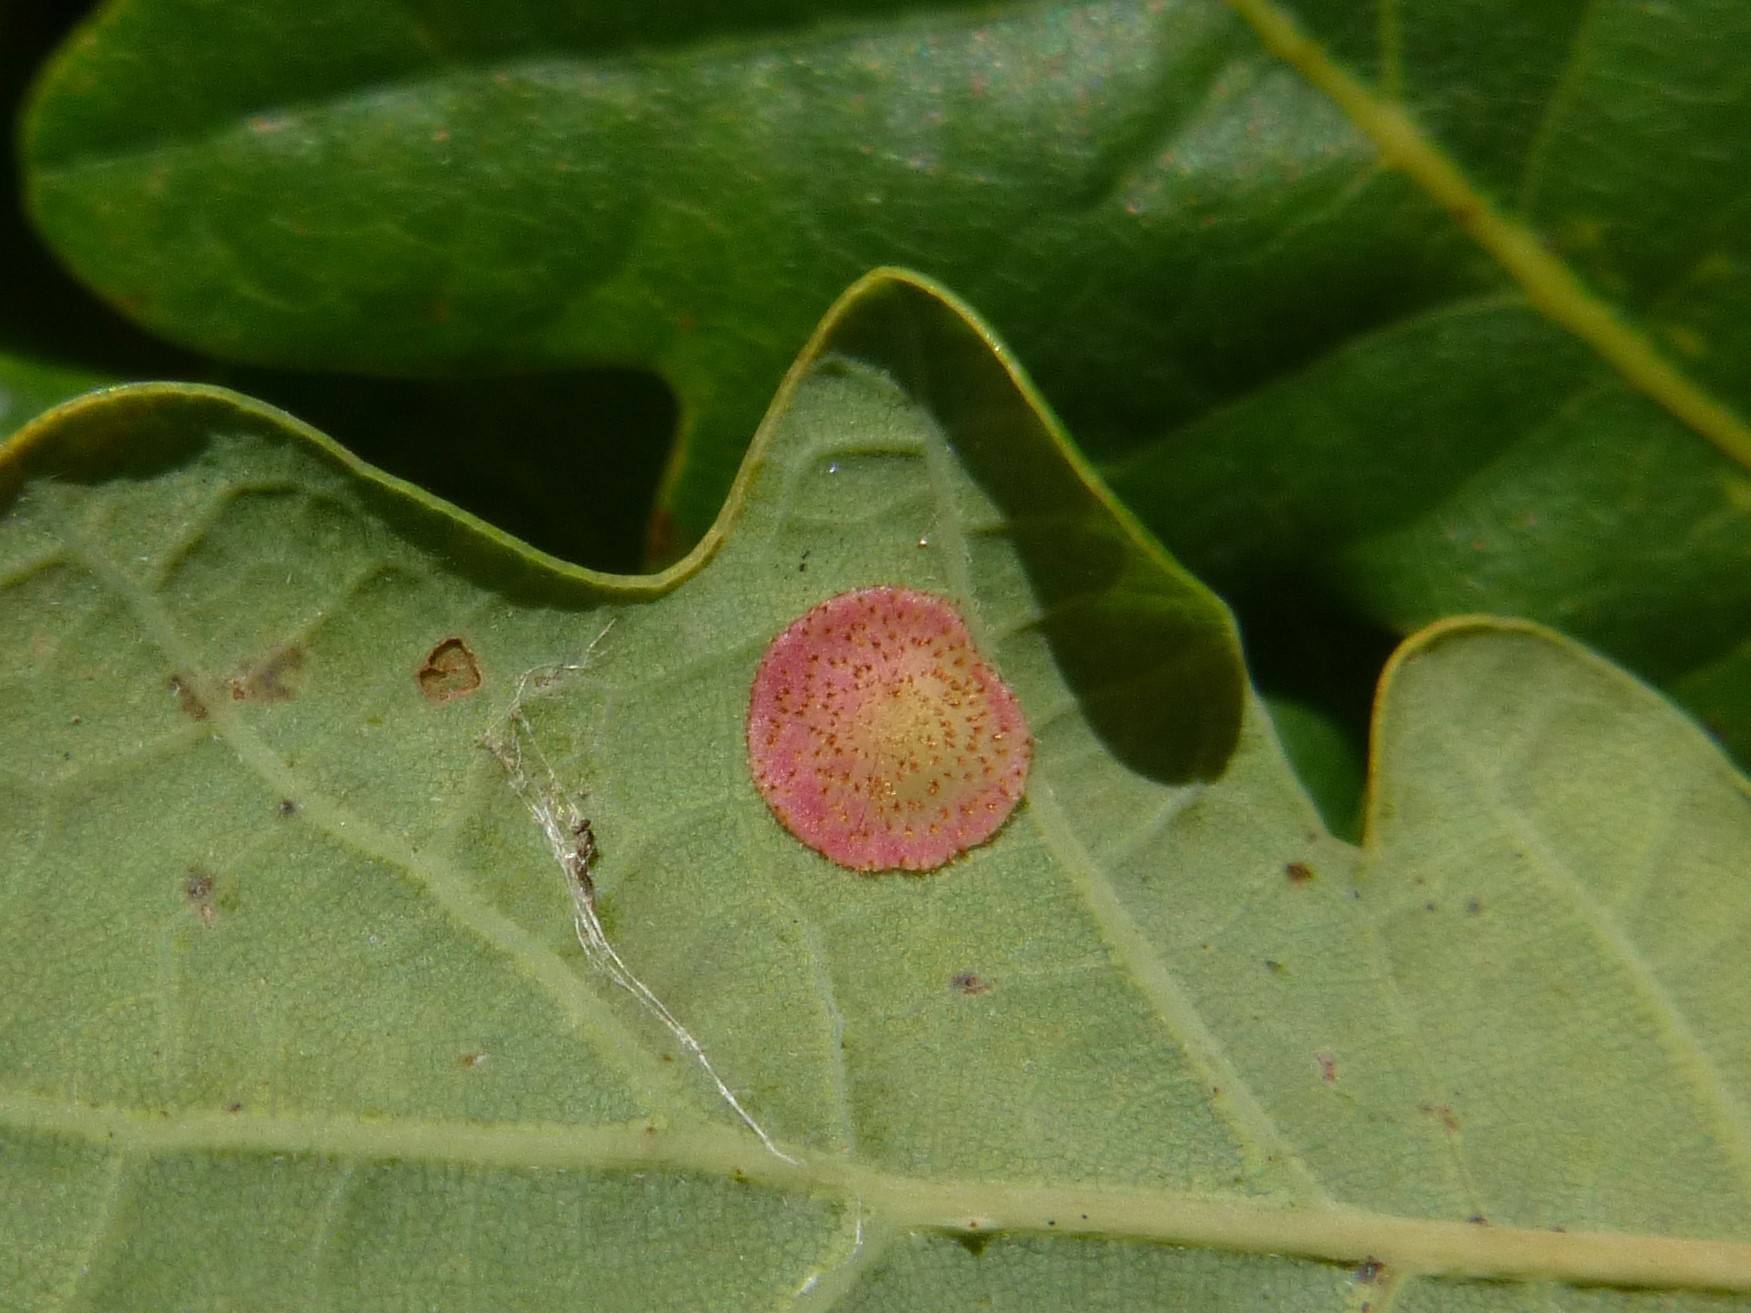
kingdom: Animalia
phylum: Arthropoda
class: Insecta
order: Hymenoptera
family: Cynipidae
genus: Neuroterus
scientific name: Neuroterus quercusbaccarum
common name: Common spangle gall
